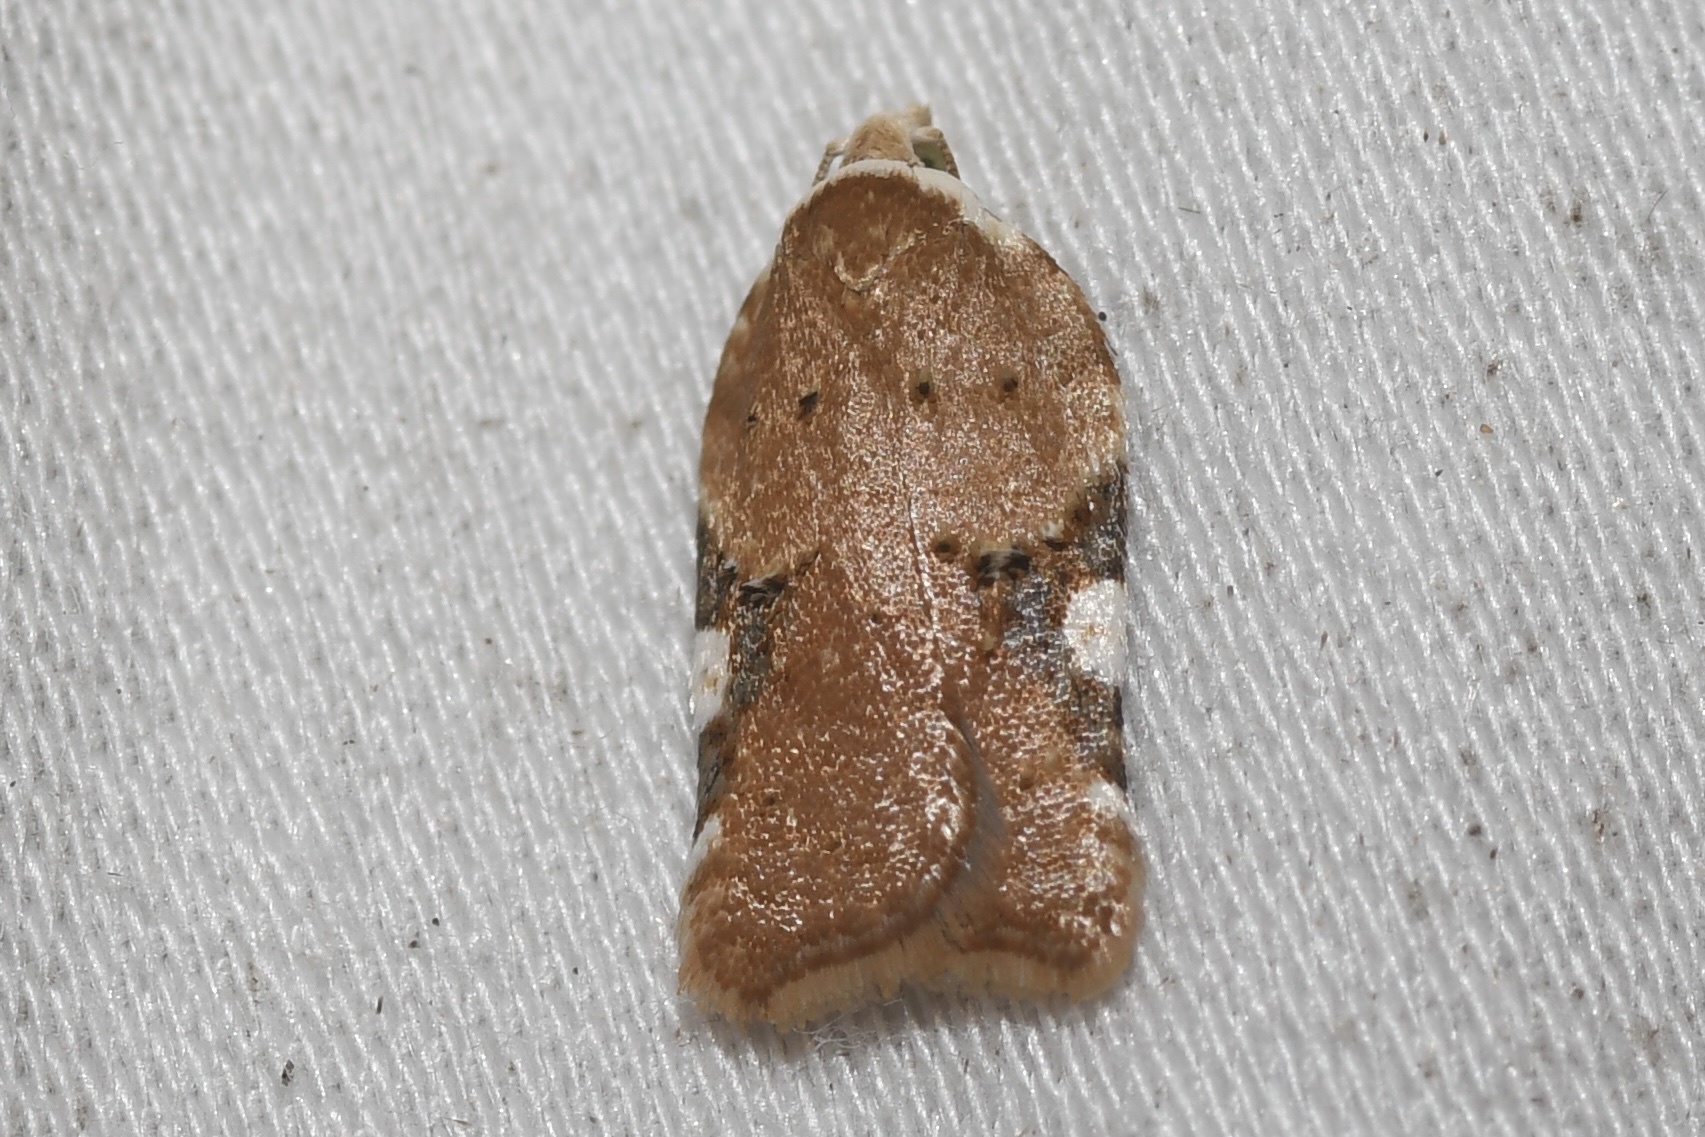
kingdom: Animalia
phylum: Arthropoda
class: Insecta
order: Lepidoptera
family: Tortricidae
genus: Acleris
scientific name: Acleris cervinana
